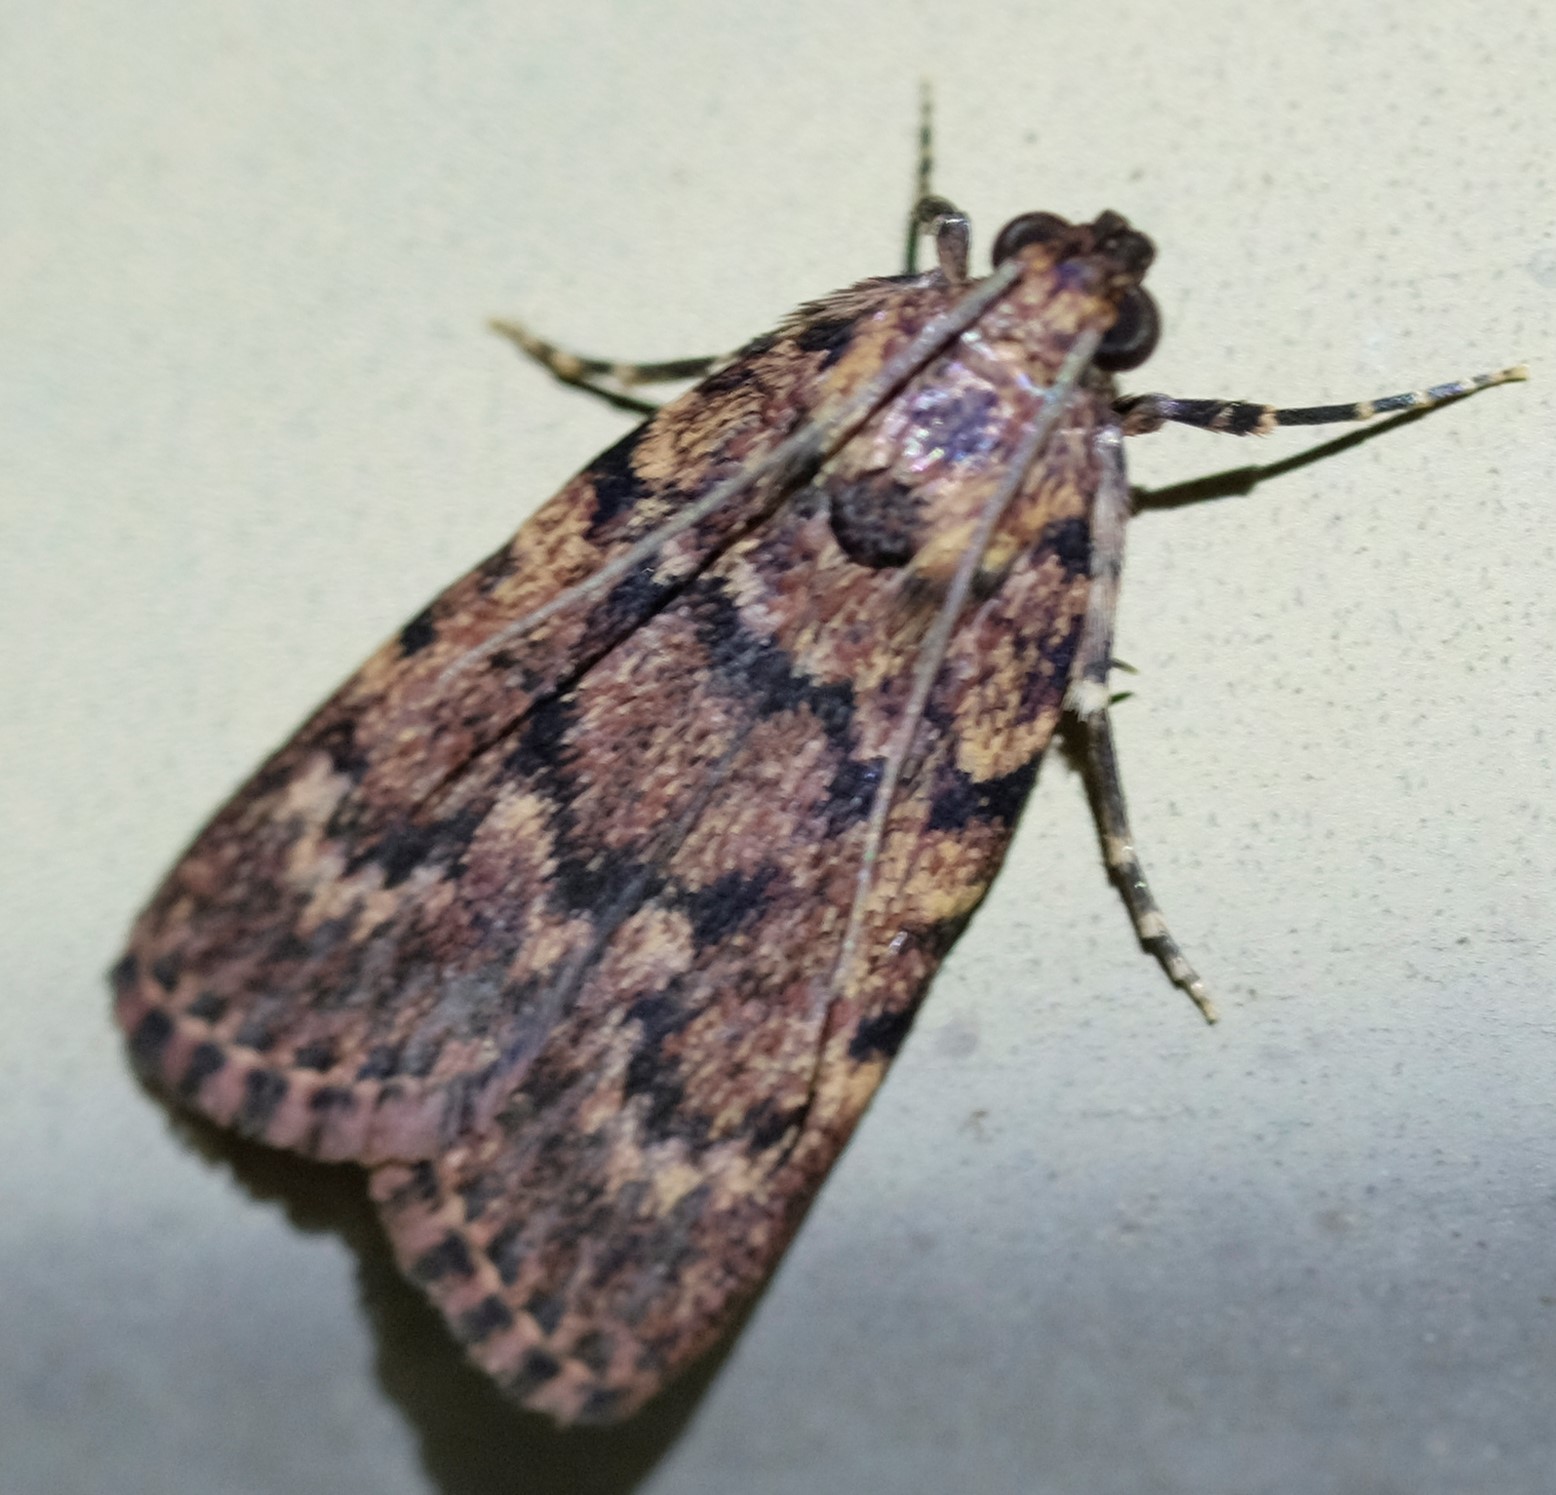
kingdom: Animalia
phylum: Arthropoda
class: Insecta
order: Lepidoptera
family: Pyralidae
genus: Mimaglossa
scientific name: Mimaglossa nauplialis
